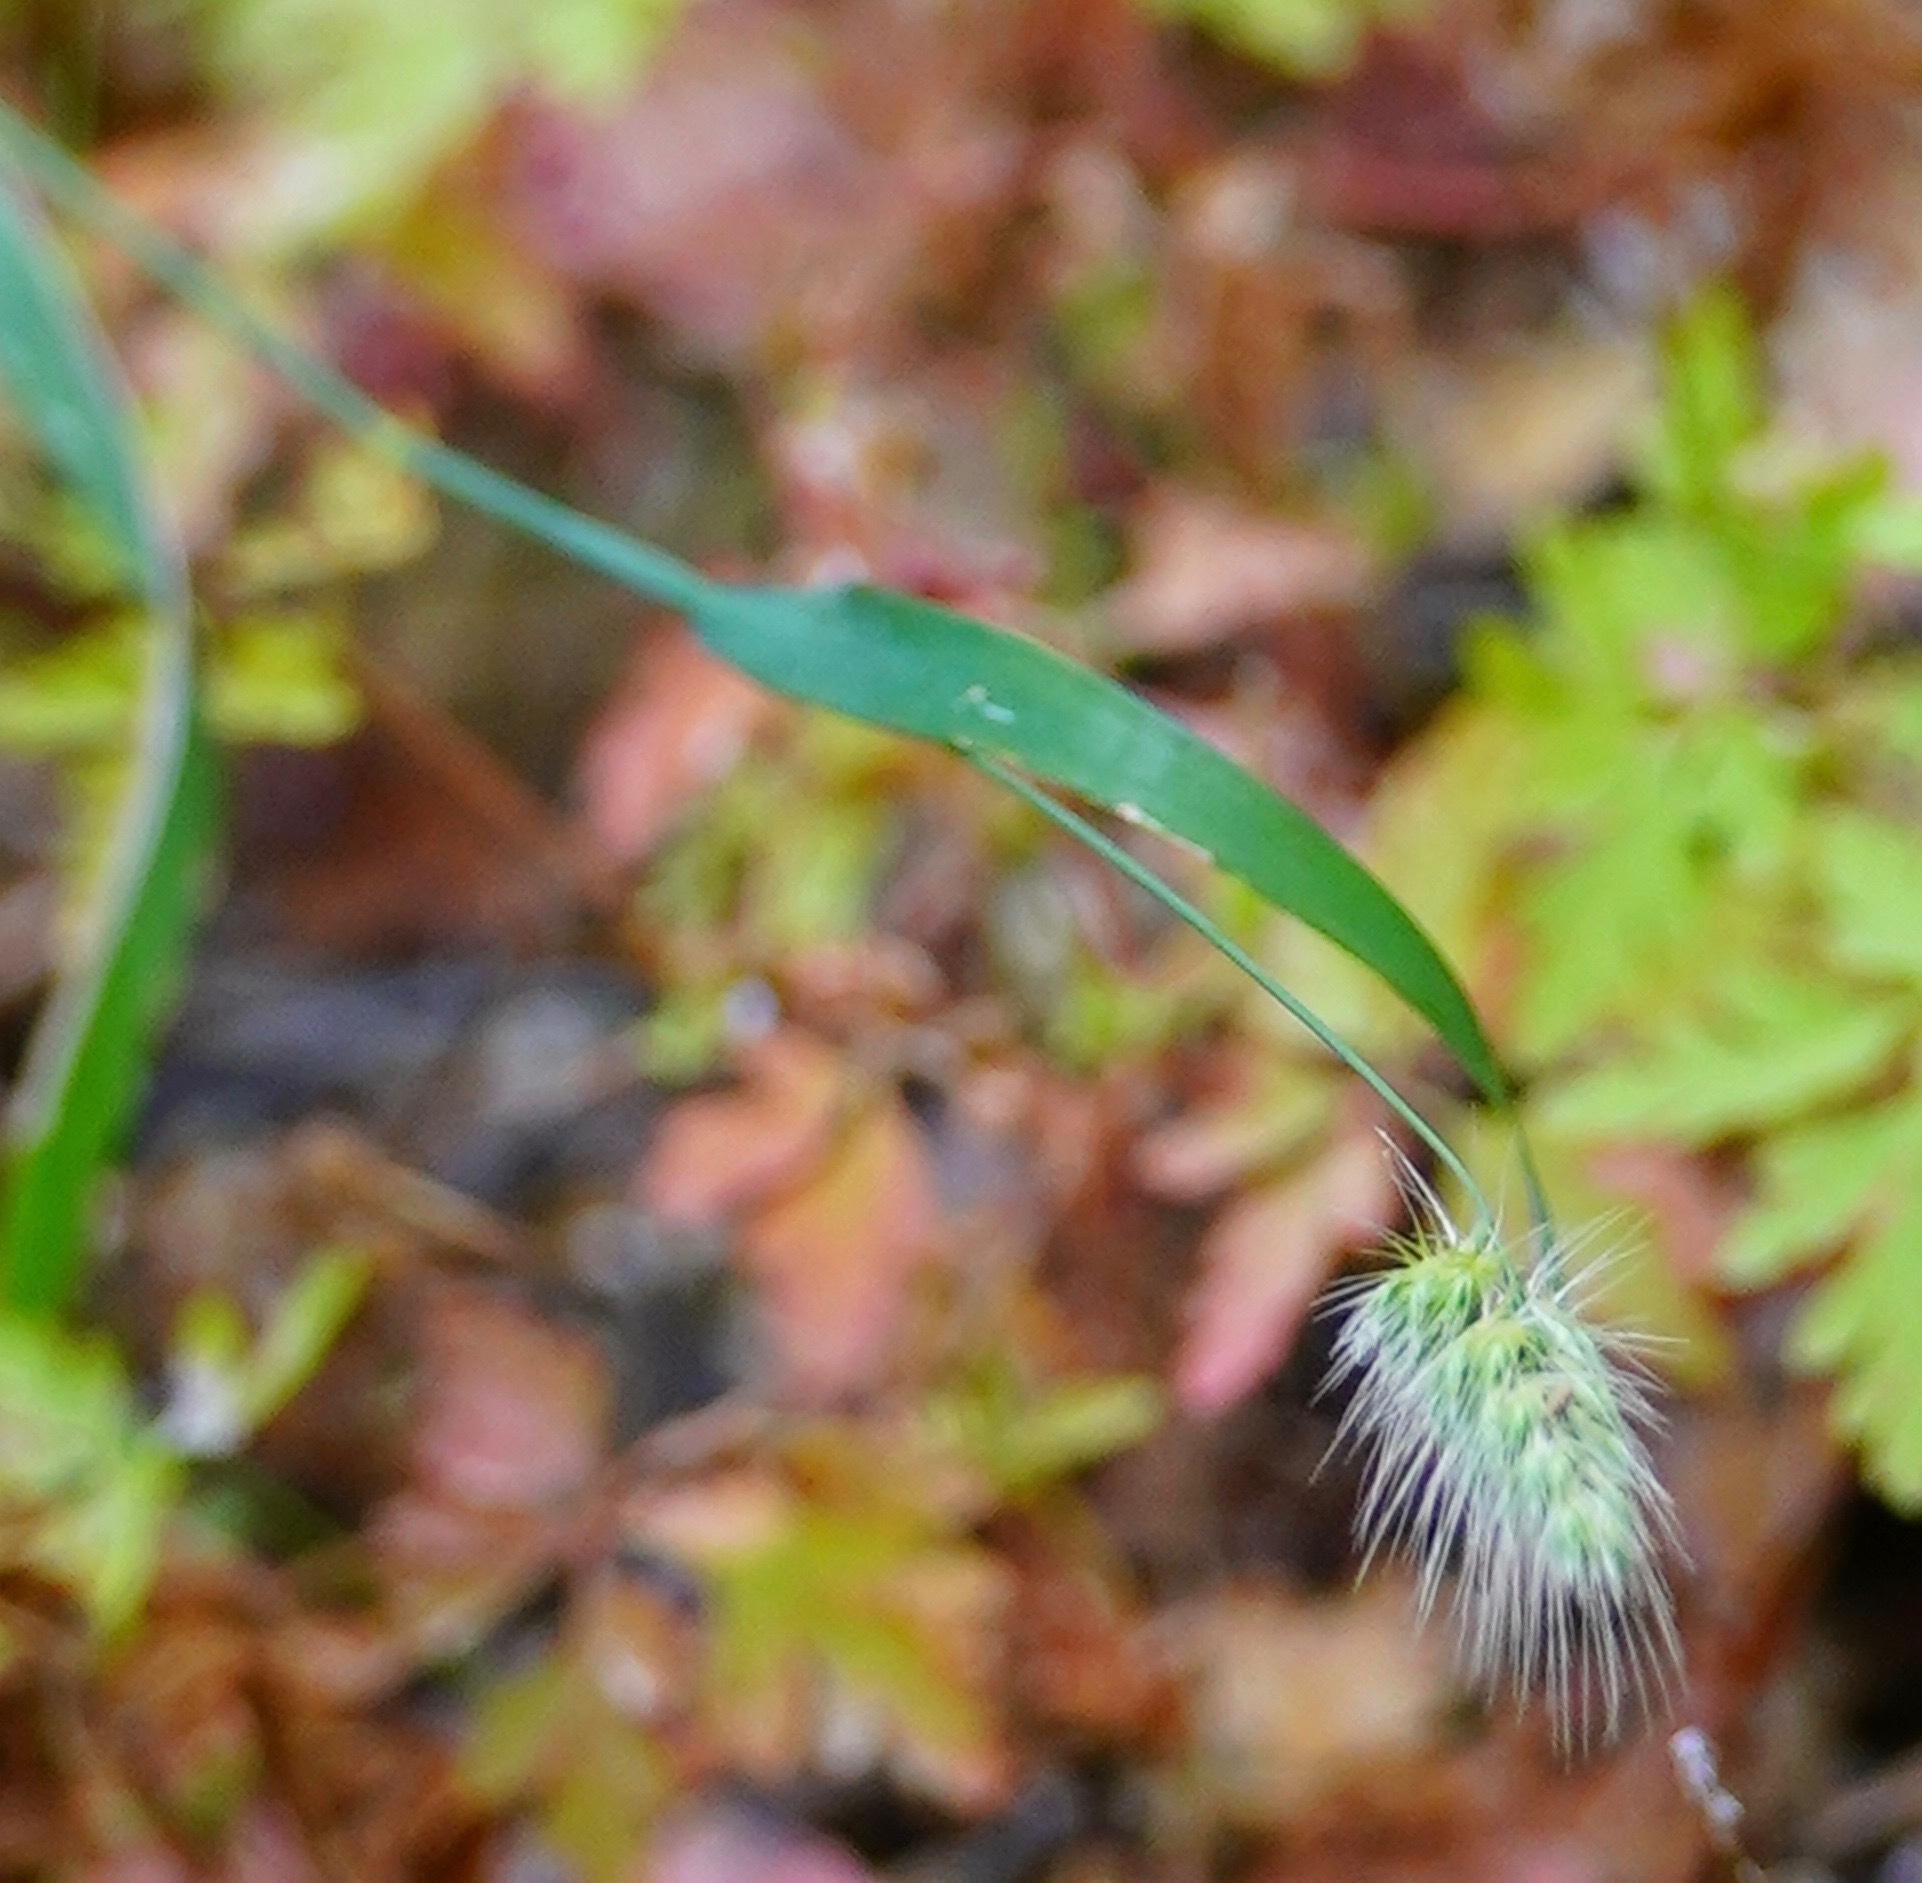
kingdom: Plantae
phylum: Tracheophyta
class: Liliopsida
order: Poales
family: Poaceae
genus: Cynosurus
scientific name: Cynosurus echinatus
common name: Rough dog's-tail
